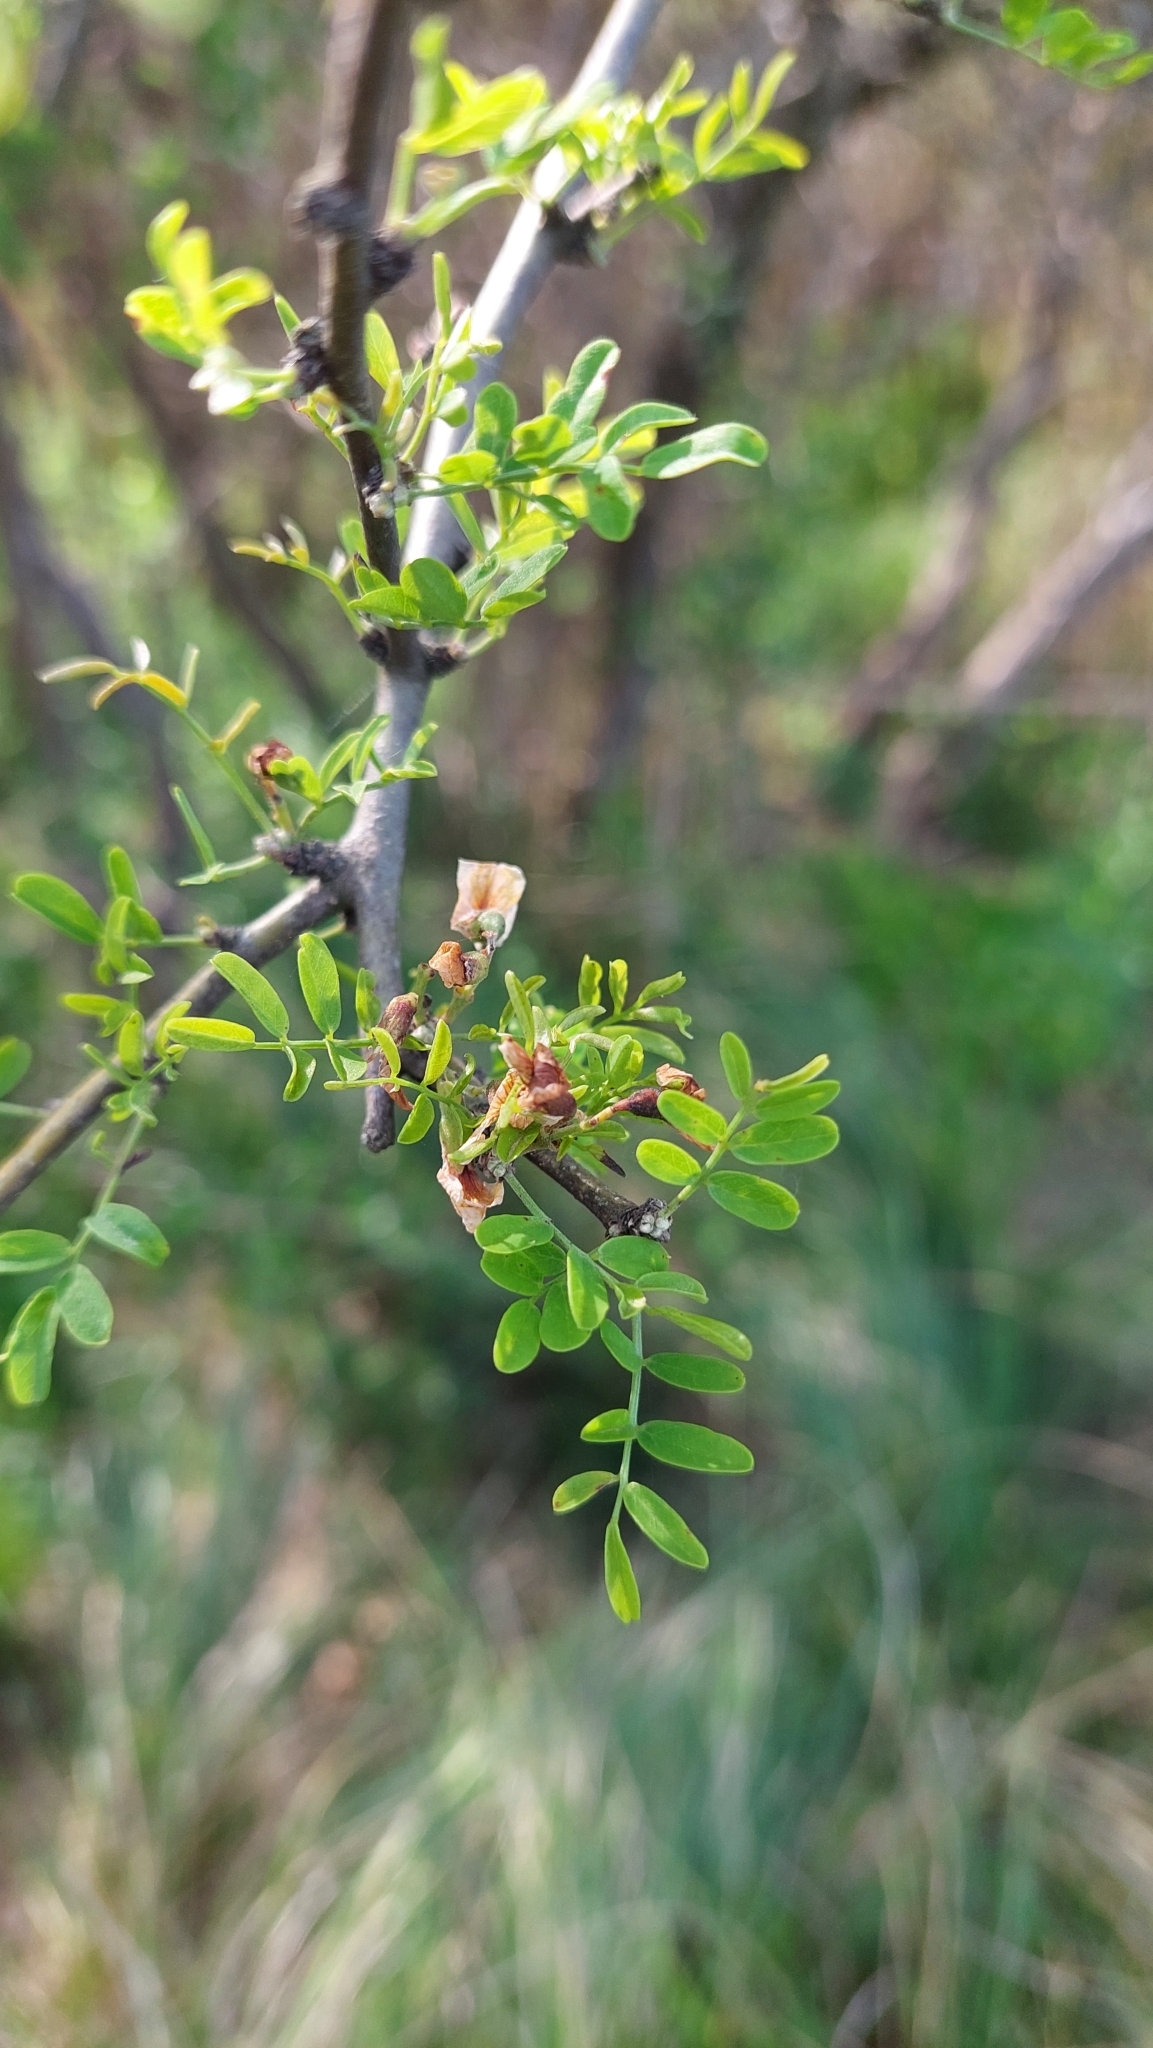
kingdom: Plantae
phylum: Tracheophyta
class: Magnoliopsida
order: Fabales
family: Fabaceae
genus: Geoffroea
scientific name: Geoffroea decorticans
